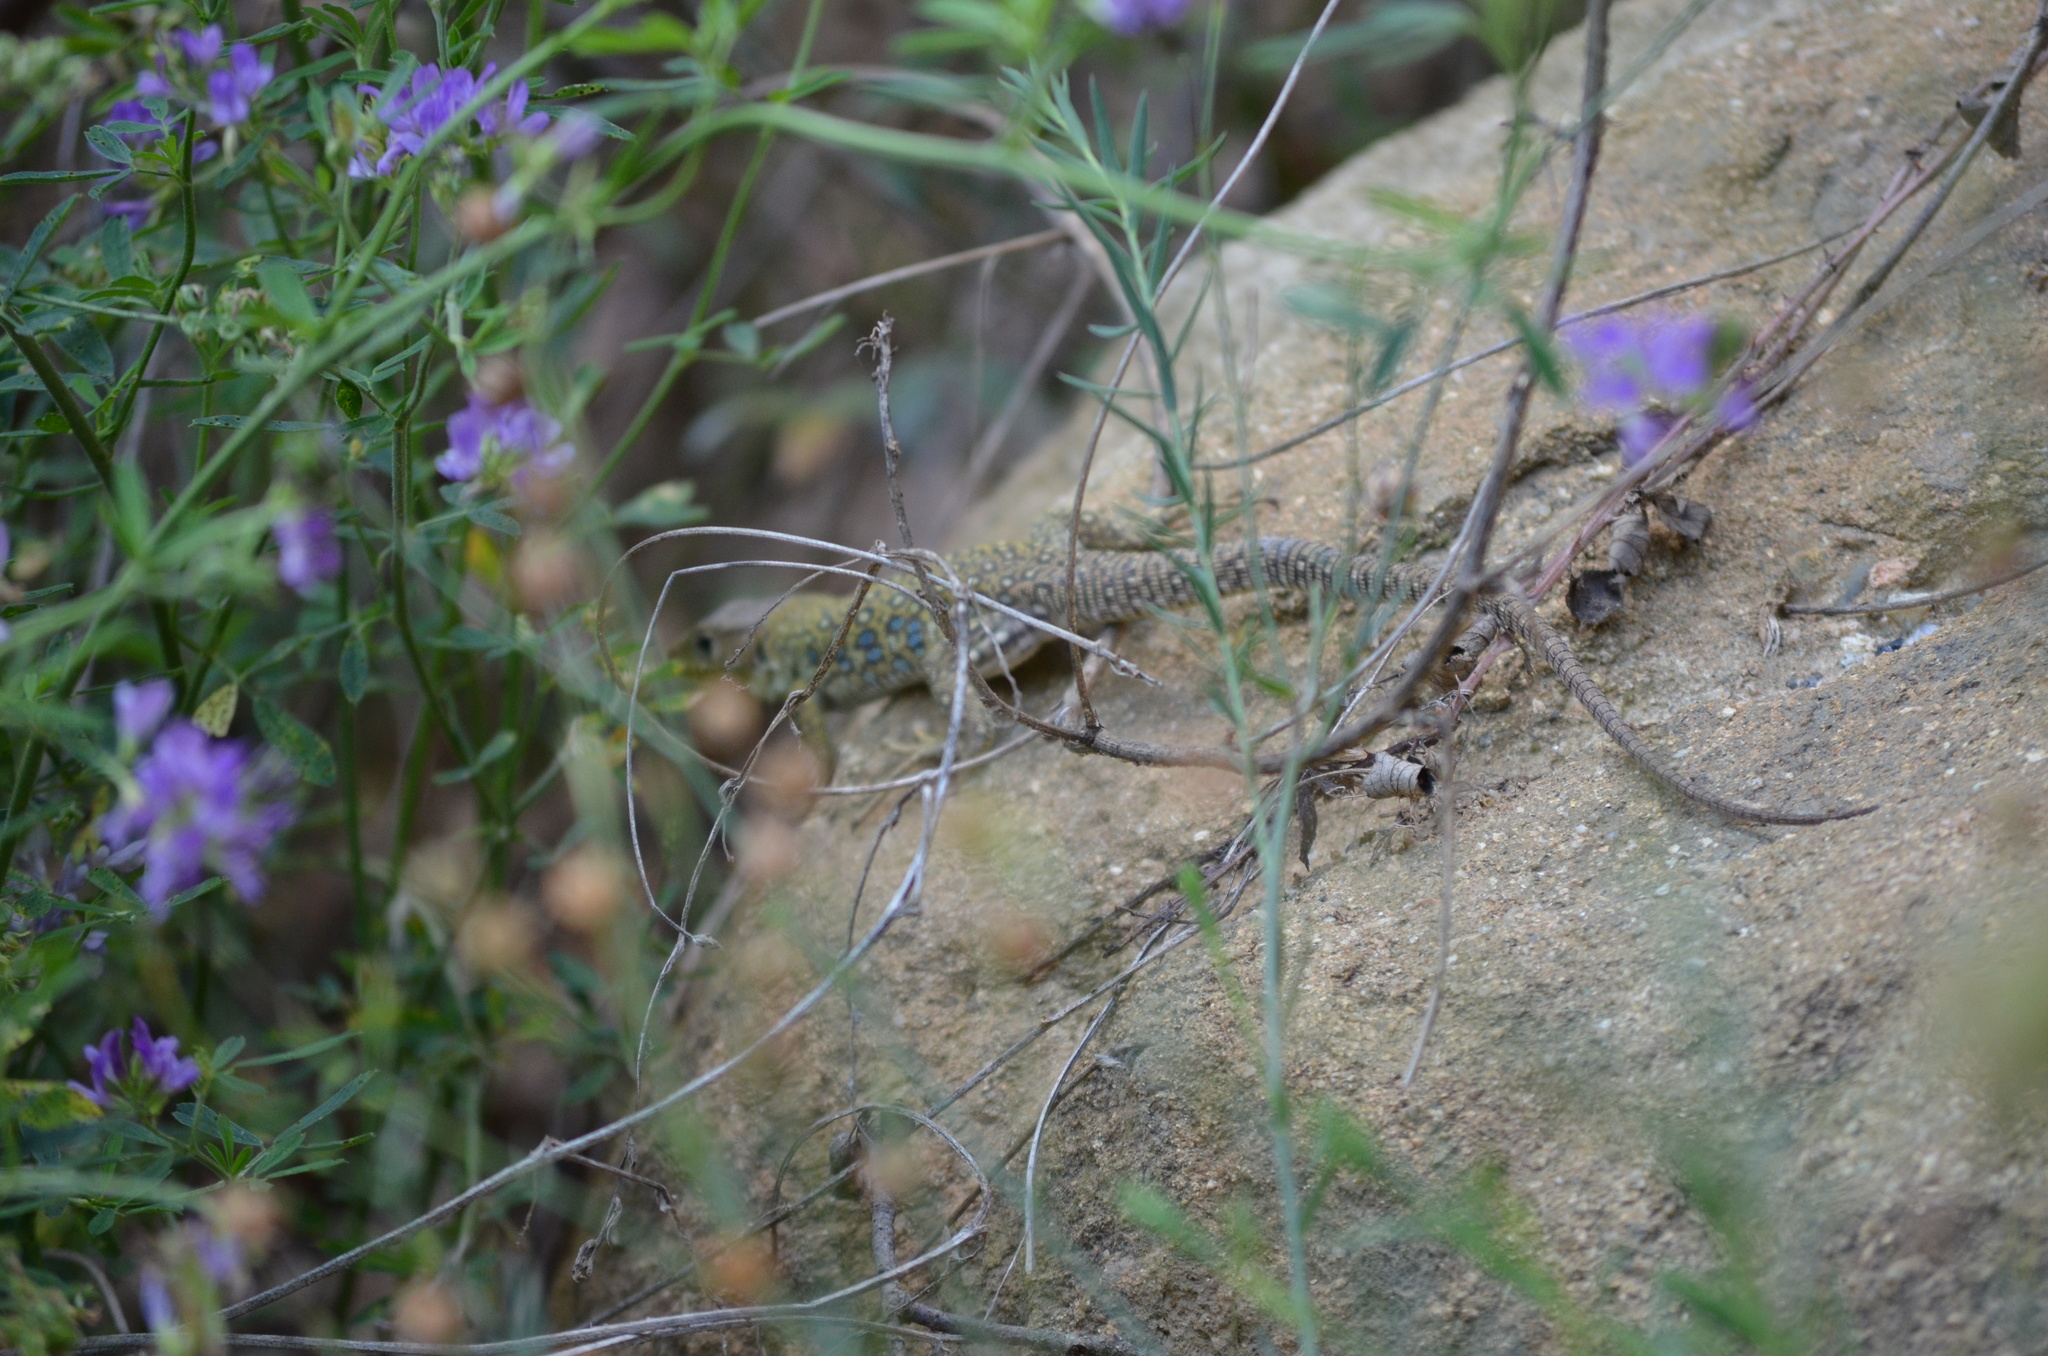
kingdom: Animalia
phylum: Chordata
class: Squamata
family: Lacertidae
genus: Timon
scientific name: Timon lepidus
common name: Ocellated lizard
